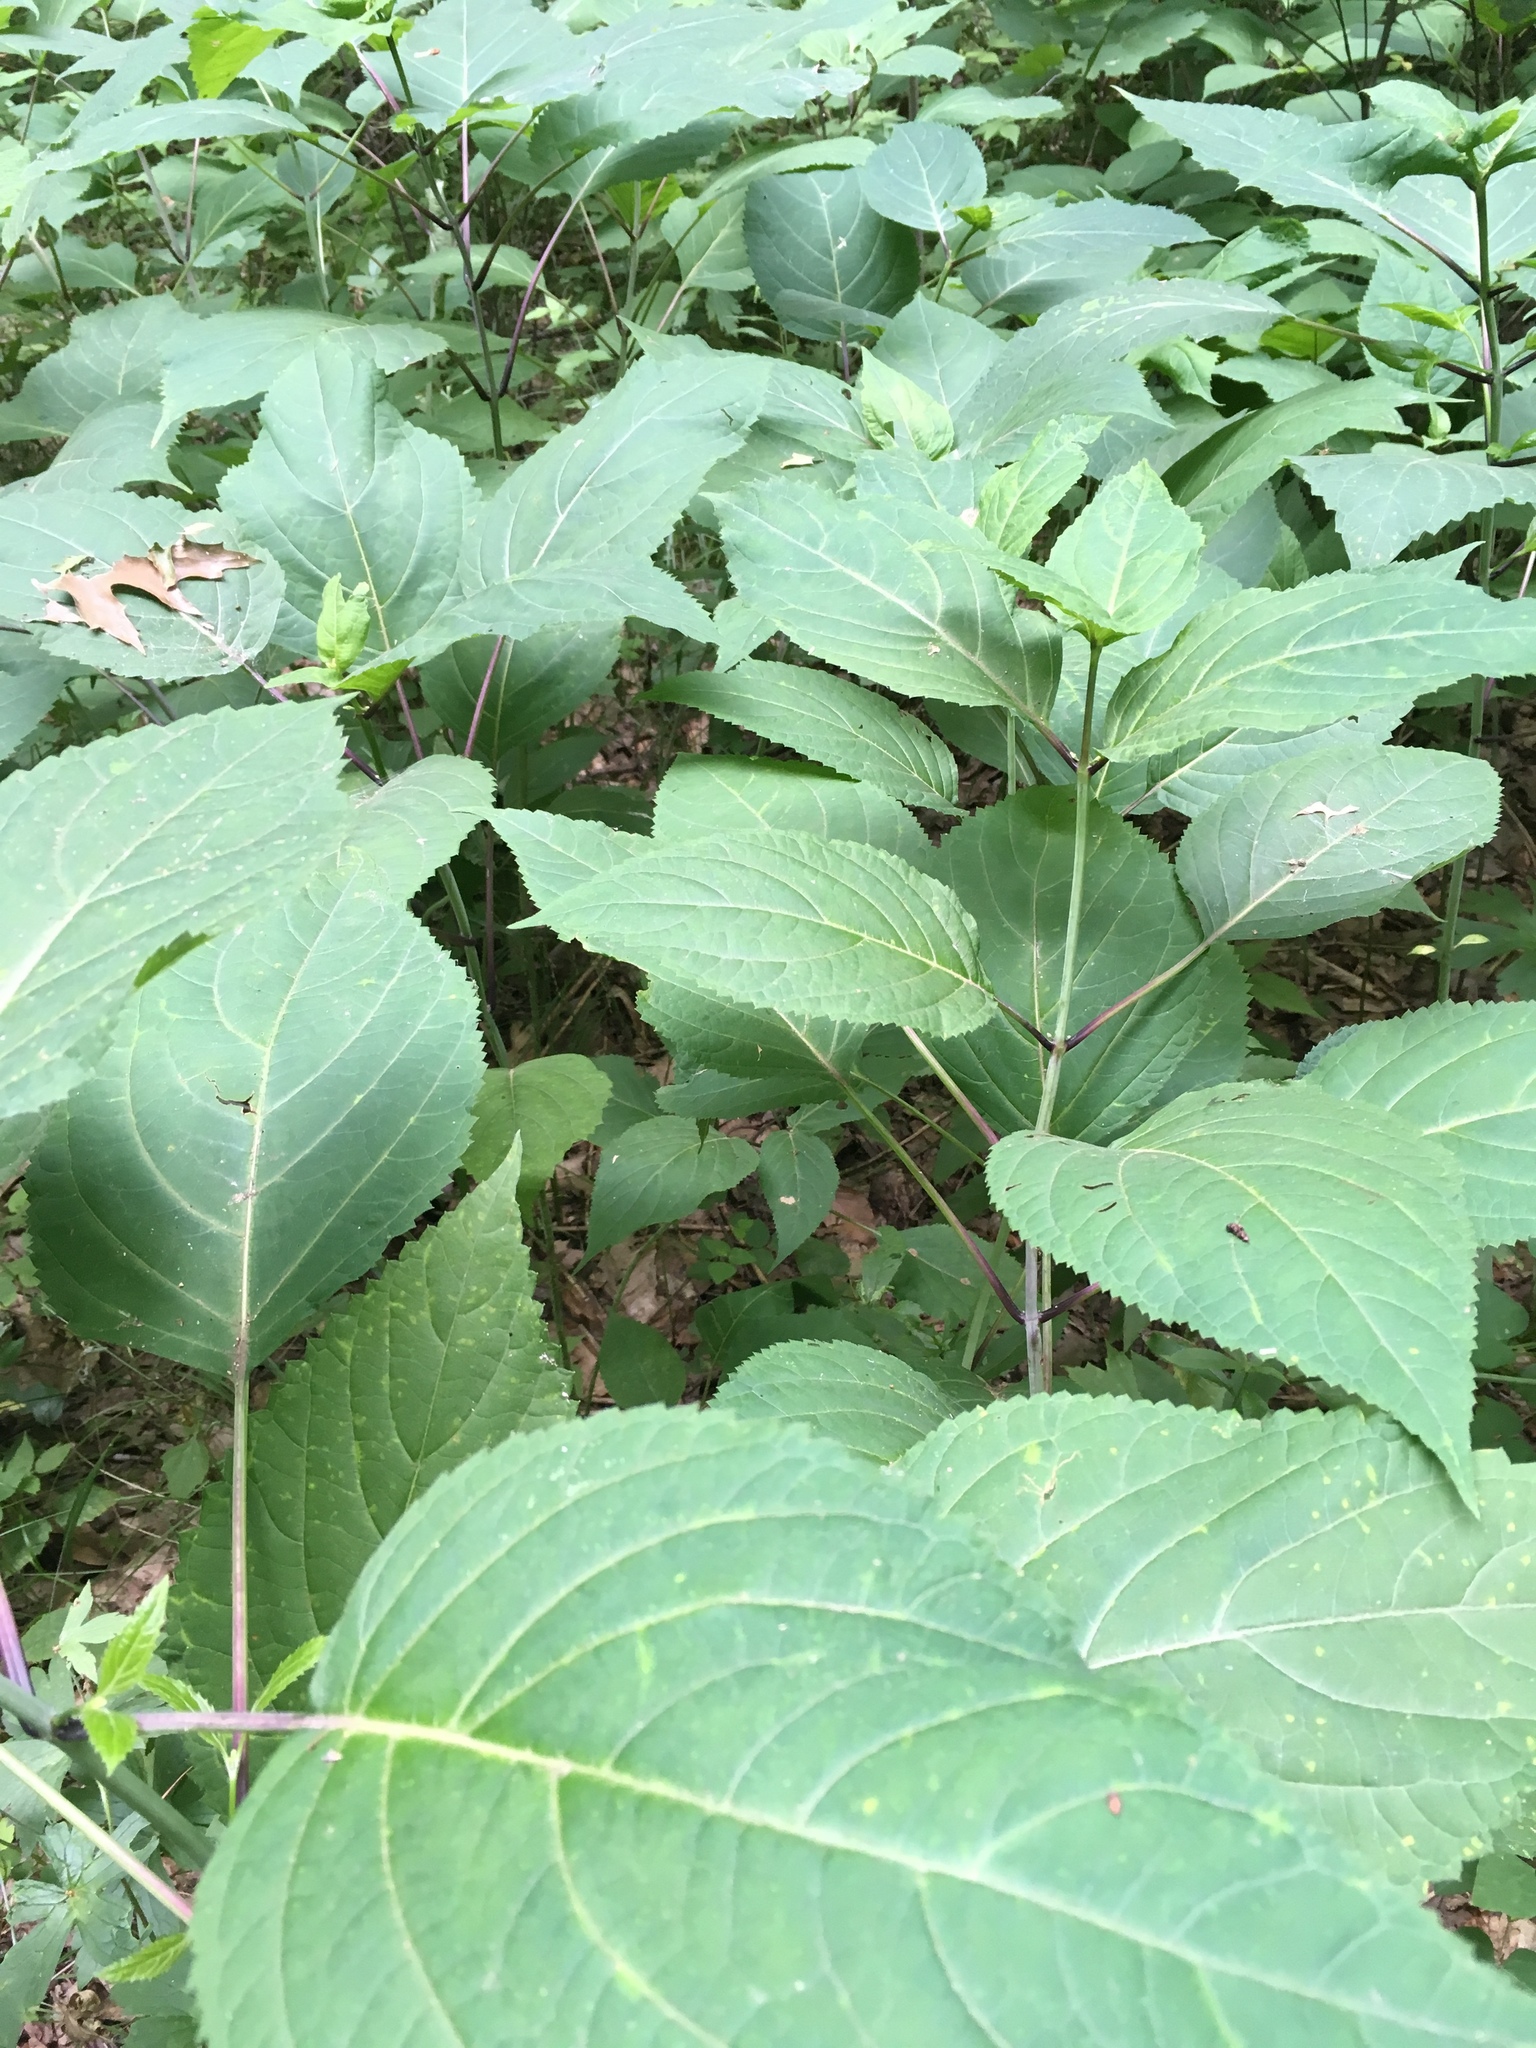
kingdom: Plantae
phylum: Tracheophyta
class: Magnoliopsida
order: Lamiales
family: Lamiaceae
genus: Collinsonia
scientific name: Collinsonia canadensis
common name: Northern horsebalm
